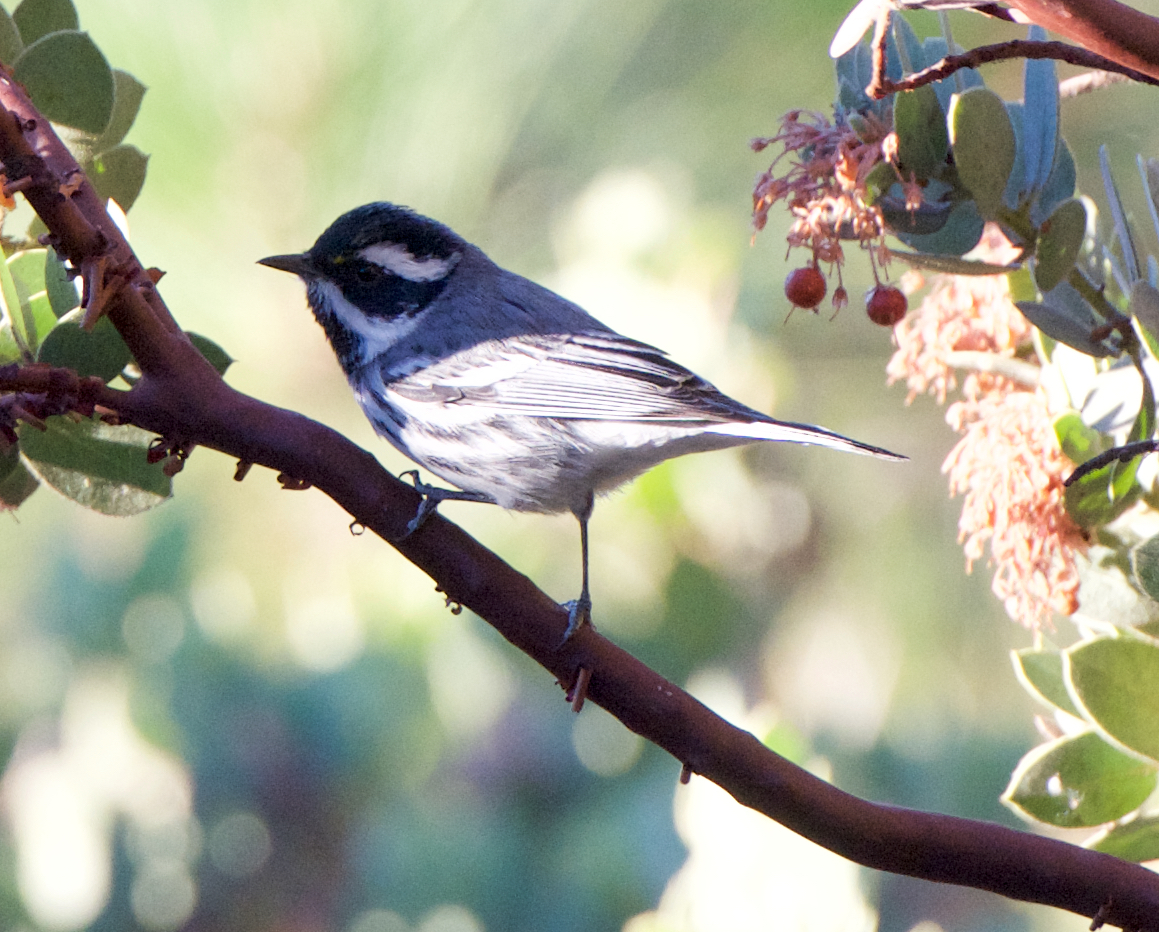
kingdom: Animalia
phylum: Chordata
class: Aves
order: Passeriformes
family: Parulidae
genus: Setophaga
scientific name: Setophaga nigrescens
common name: Black-throated gray warbler
